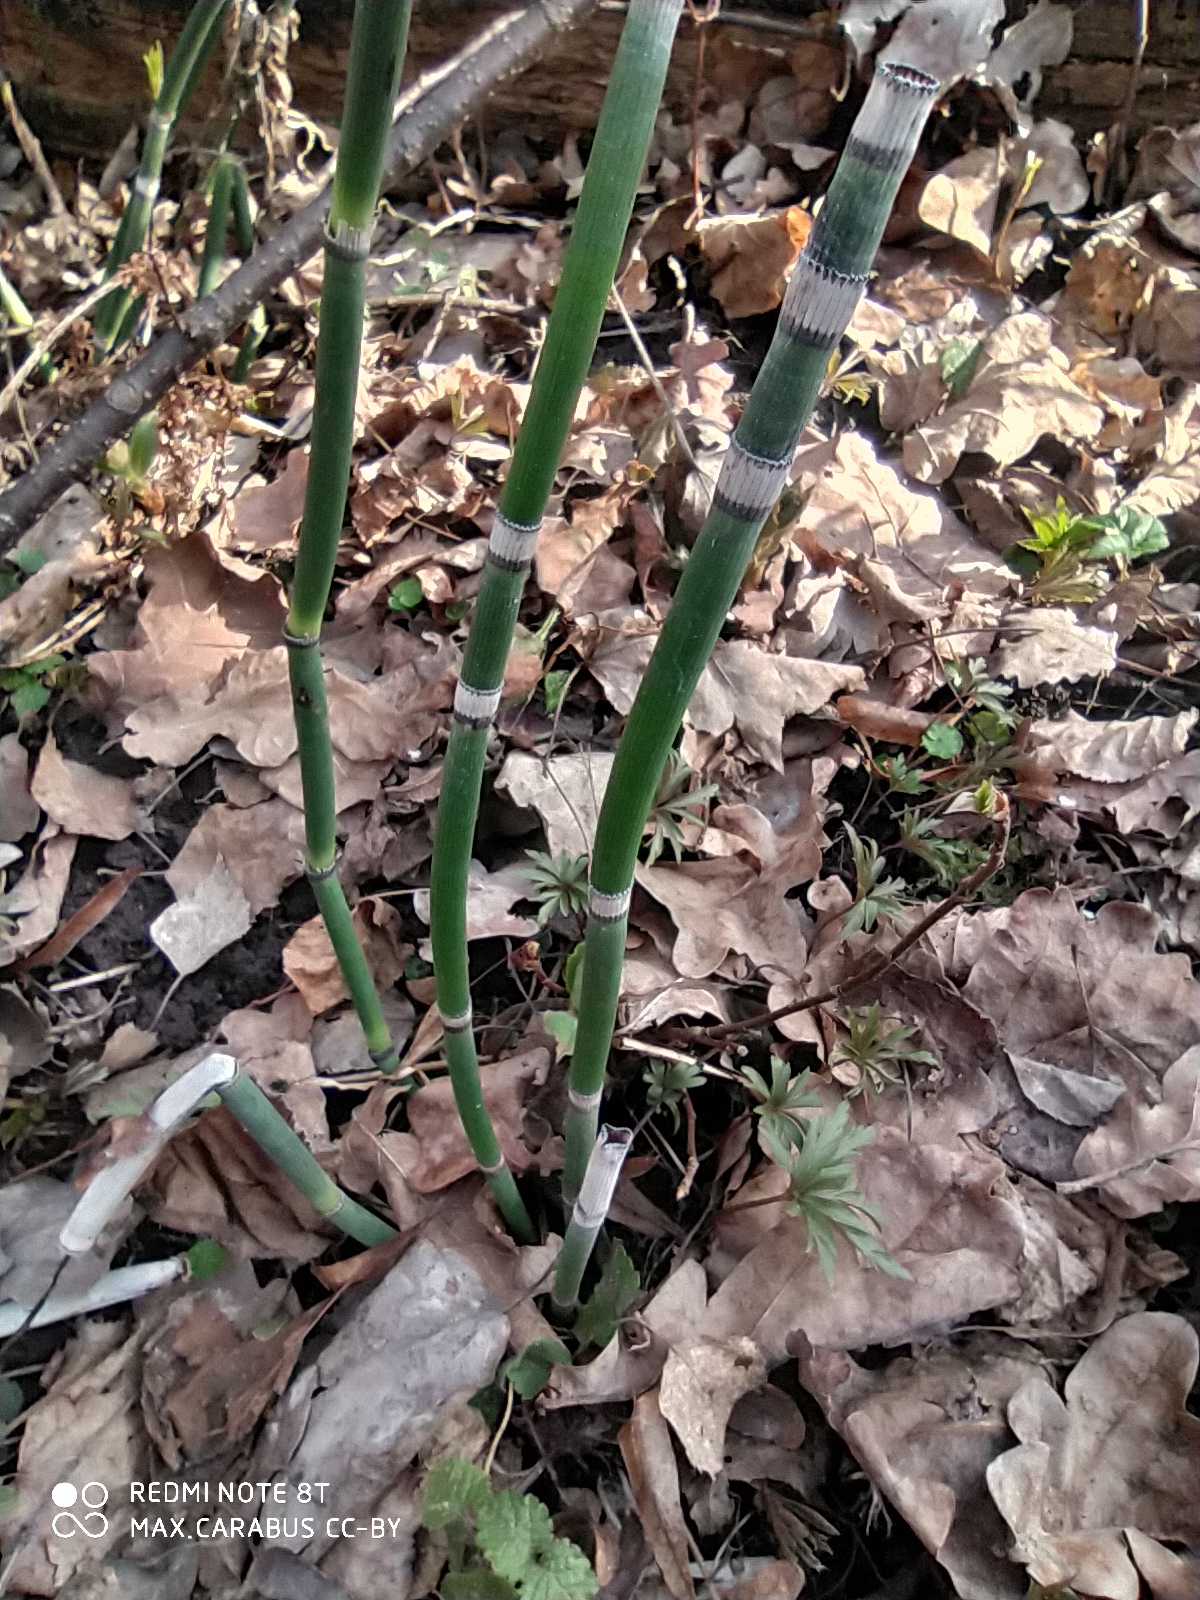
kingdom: Plantae
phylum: Tracheophyta
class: Polypodiopsida
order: Equisetales
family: Equisetaceae
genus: Equisetum
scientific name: Equisetum hyemale
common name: Rough horsetail
